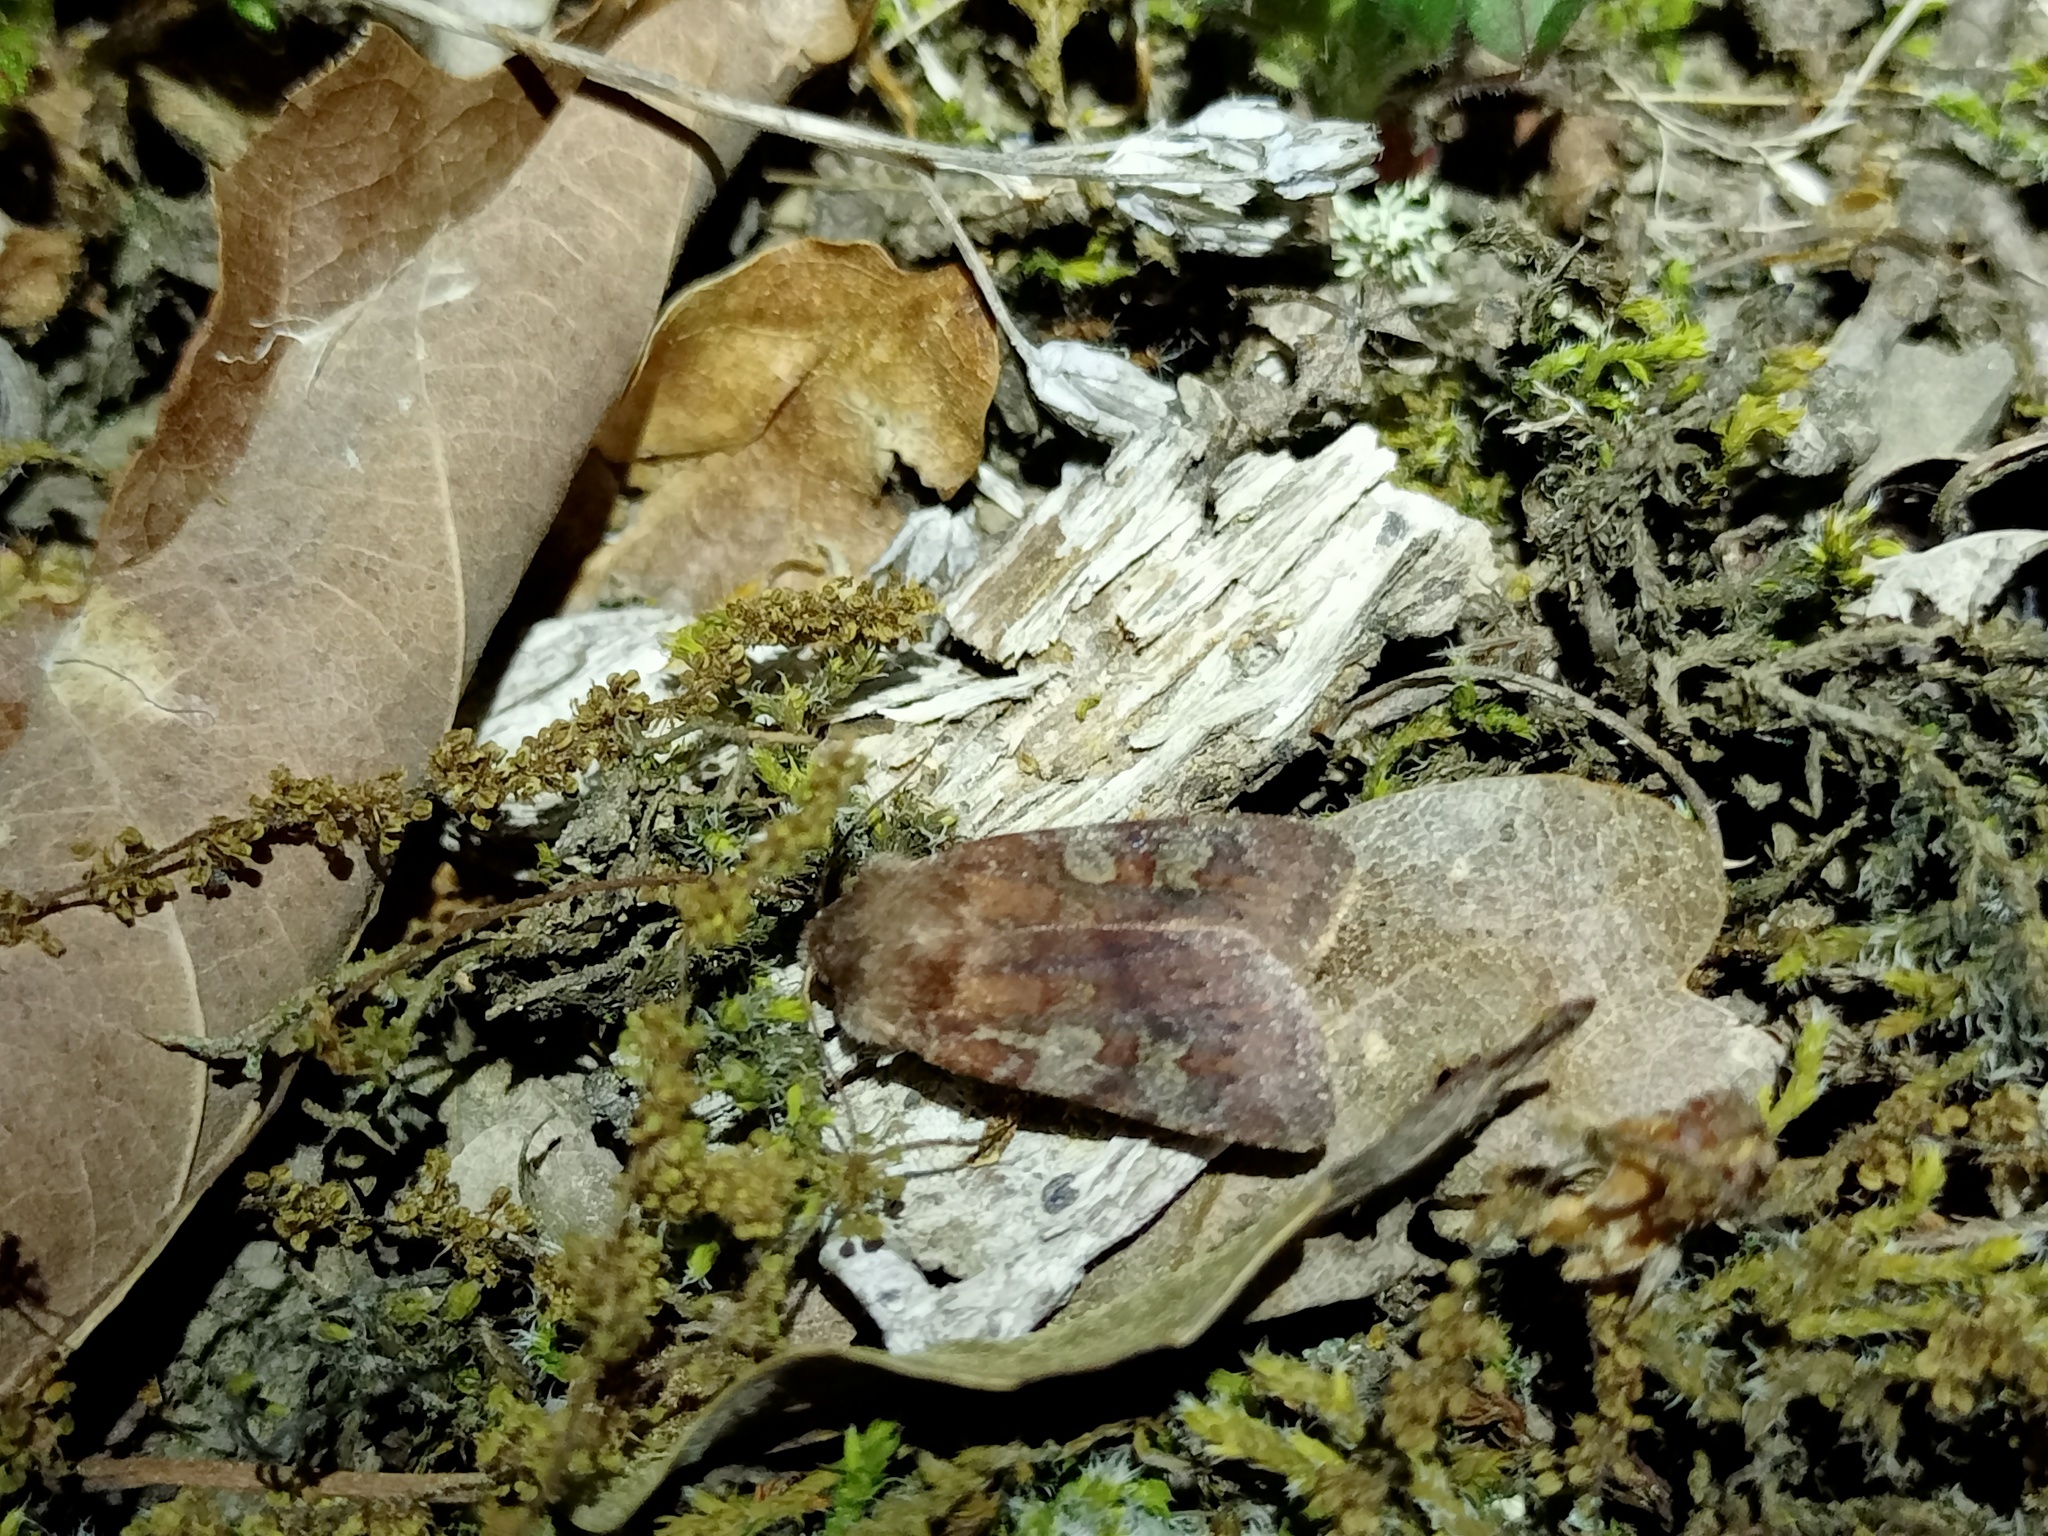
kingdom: Animalia
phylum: Arthropoda
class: Insecta
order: Lepidoptera
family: Noctuidae
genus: Cerastis
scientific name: Cerastis leucographa
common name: White-marked
